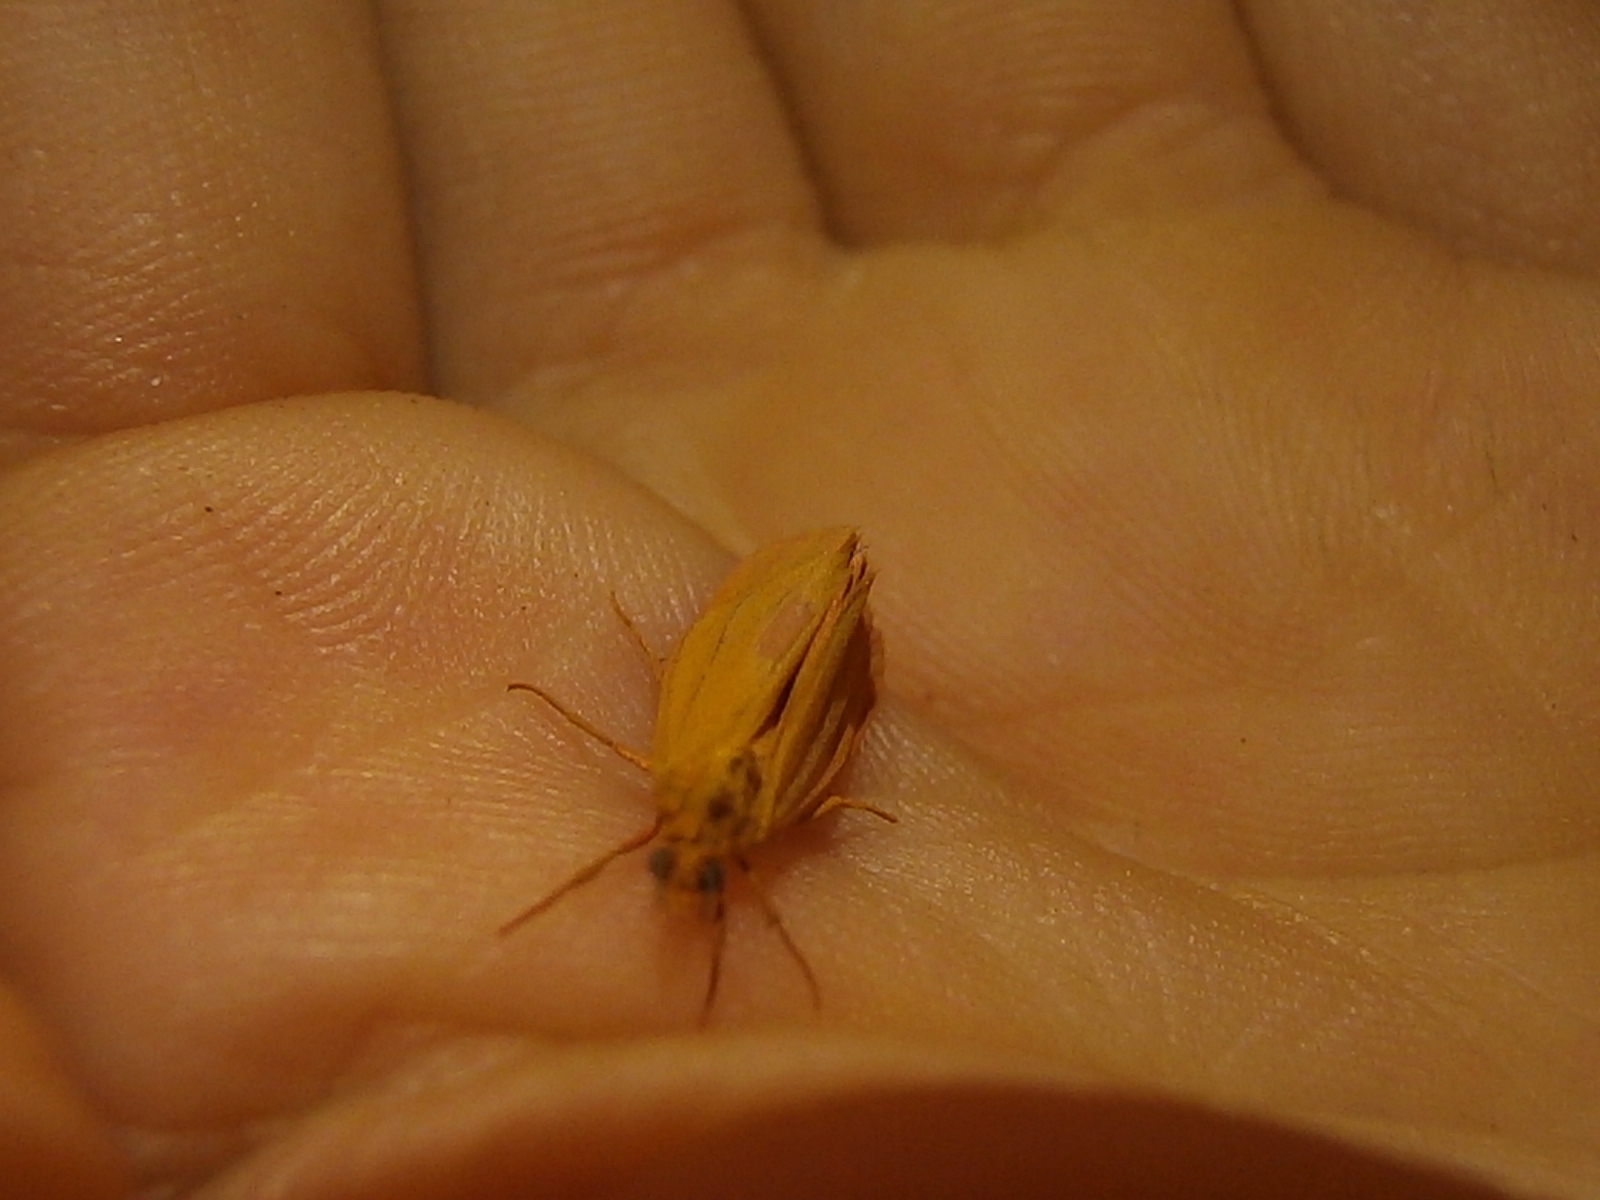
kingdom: Animalia
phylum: Arthropoda
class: Insecta
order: Lepidoptera
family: Erebidae
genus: Virbia
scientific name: Virbia aurantiaca
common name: Orange virbia moth
